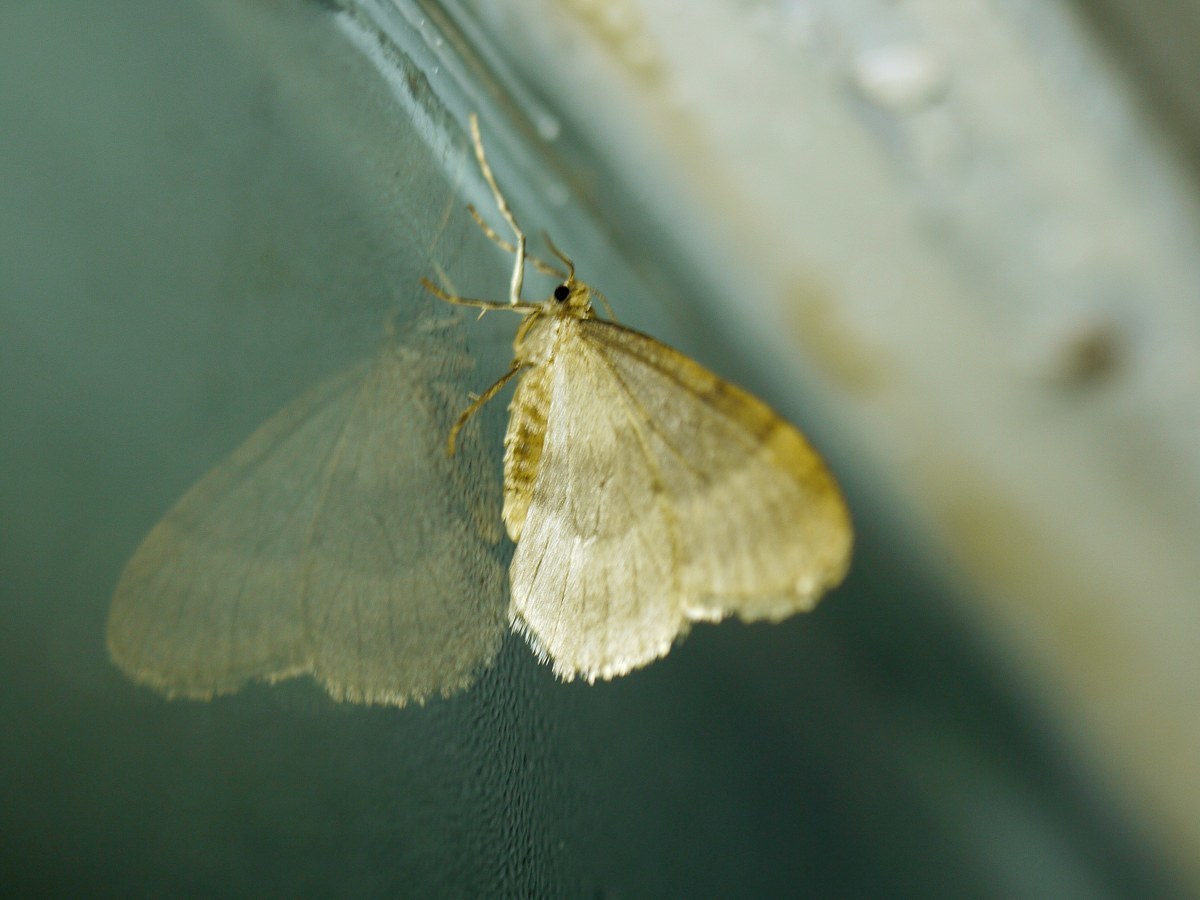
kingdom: Animalia
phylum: Arthropoda
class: Insecta
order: Lepidoptera
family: Geometridae
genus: Operophtera
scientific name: Operophtera brumata
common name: Winter moth
